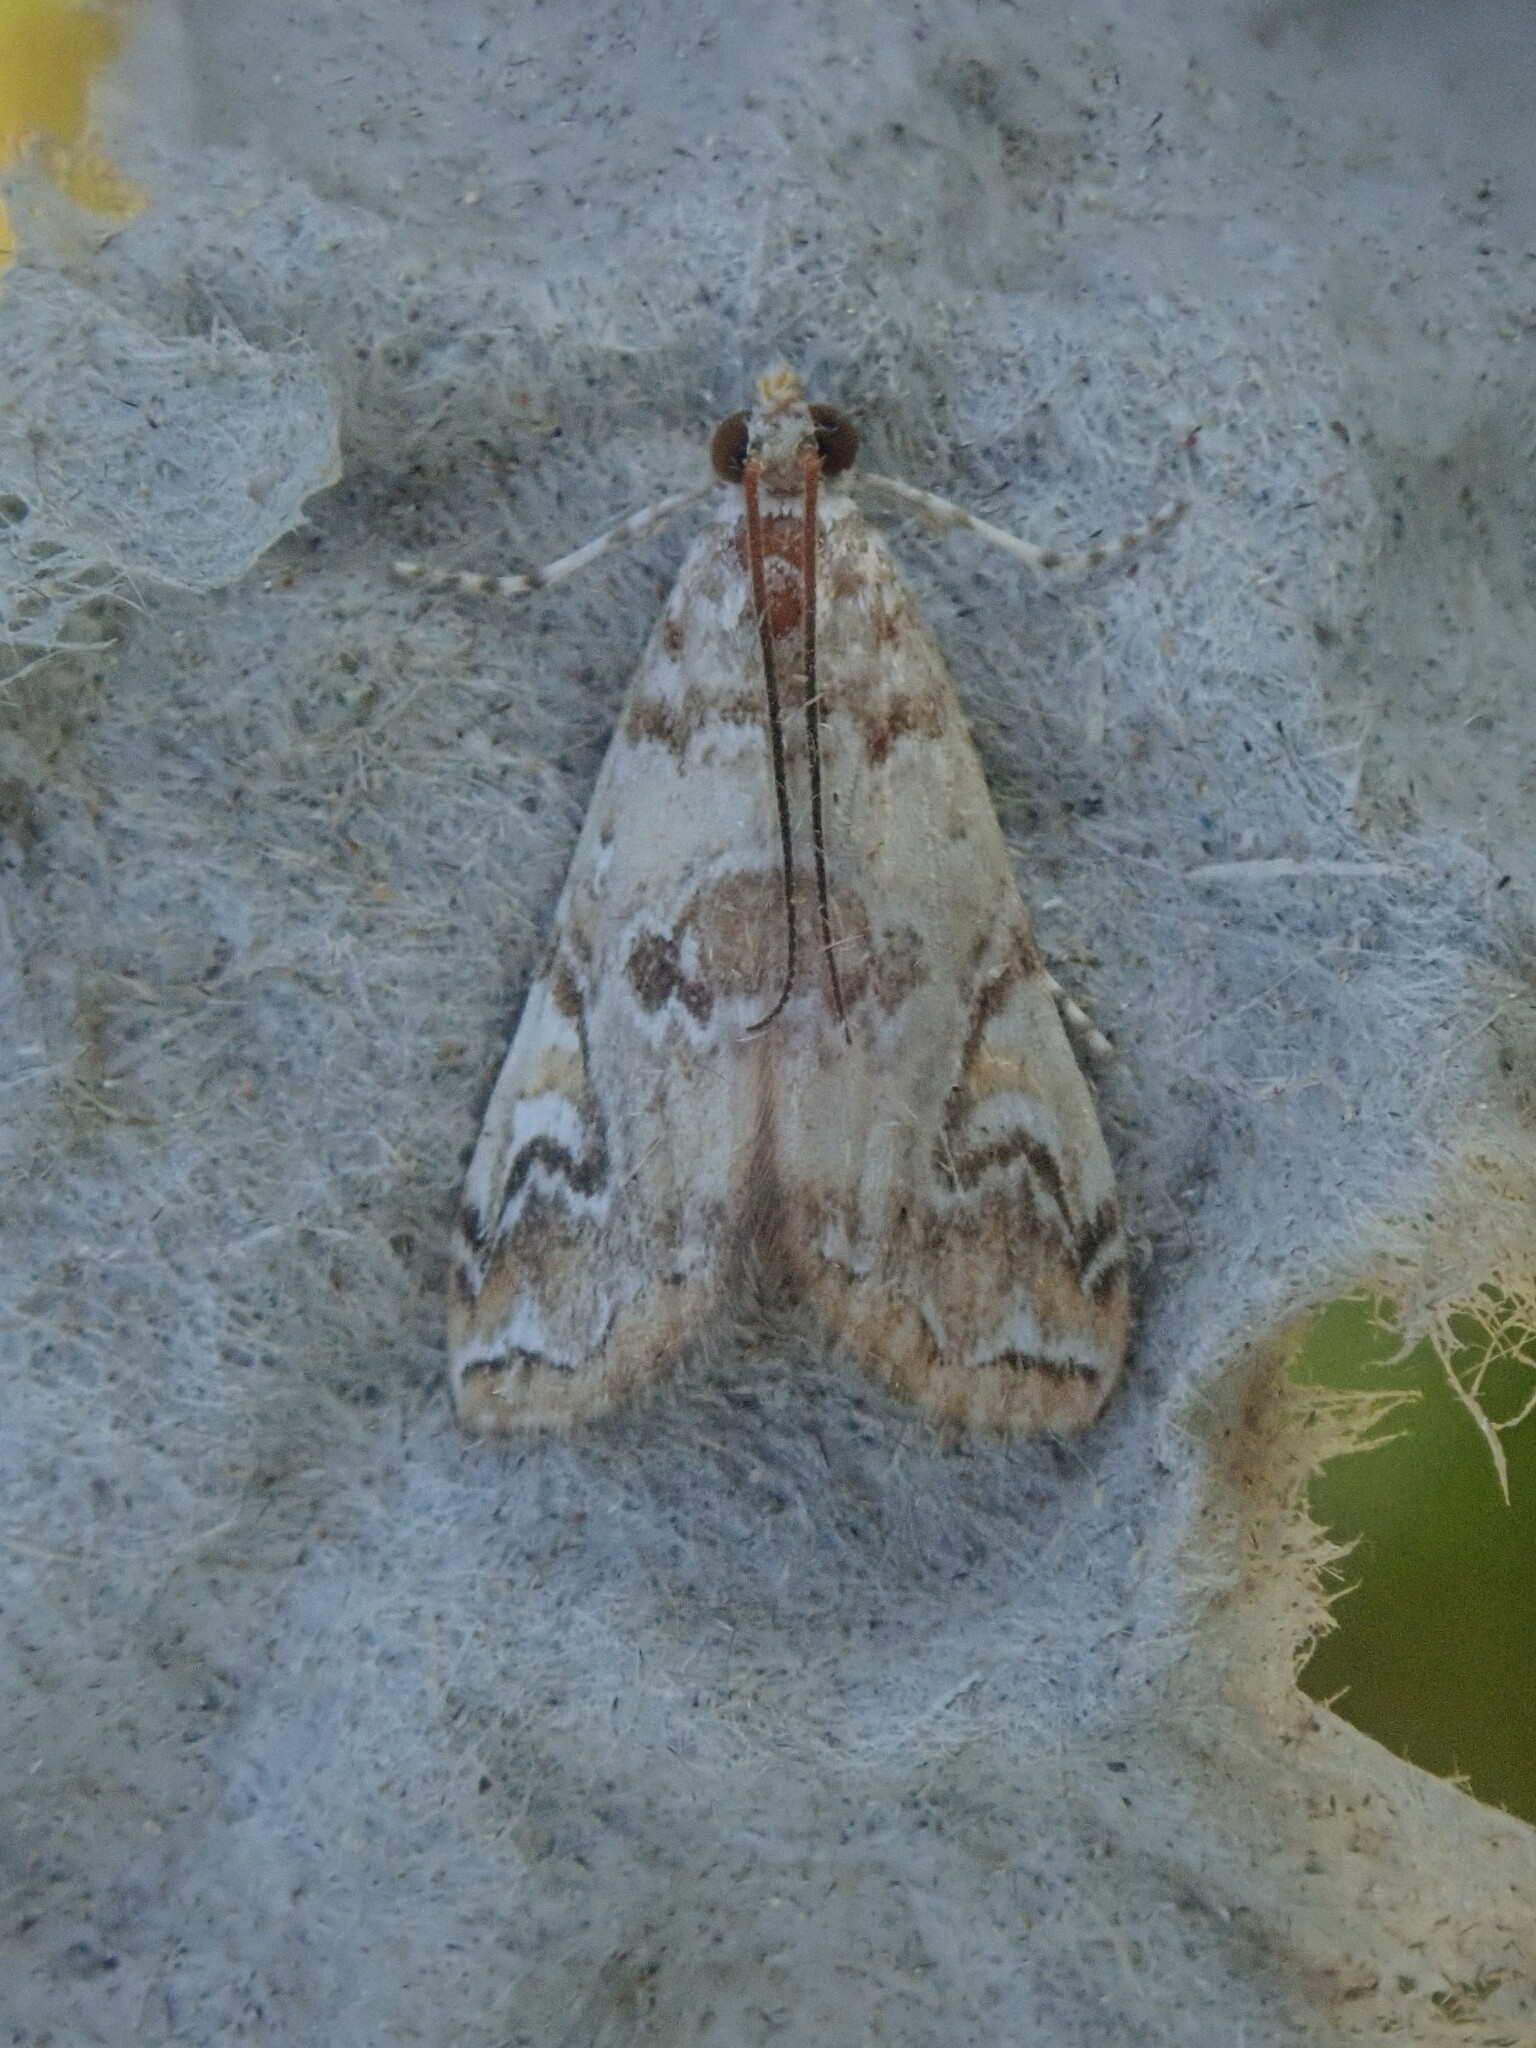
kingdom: Animalia
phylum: Arthropoda
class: Insecta
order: Lepidoptera
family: Crambidae
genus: Elophila
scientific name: Elophila gyralis
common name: Waterlily borer moth
